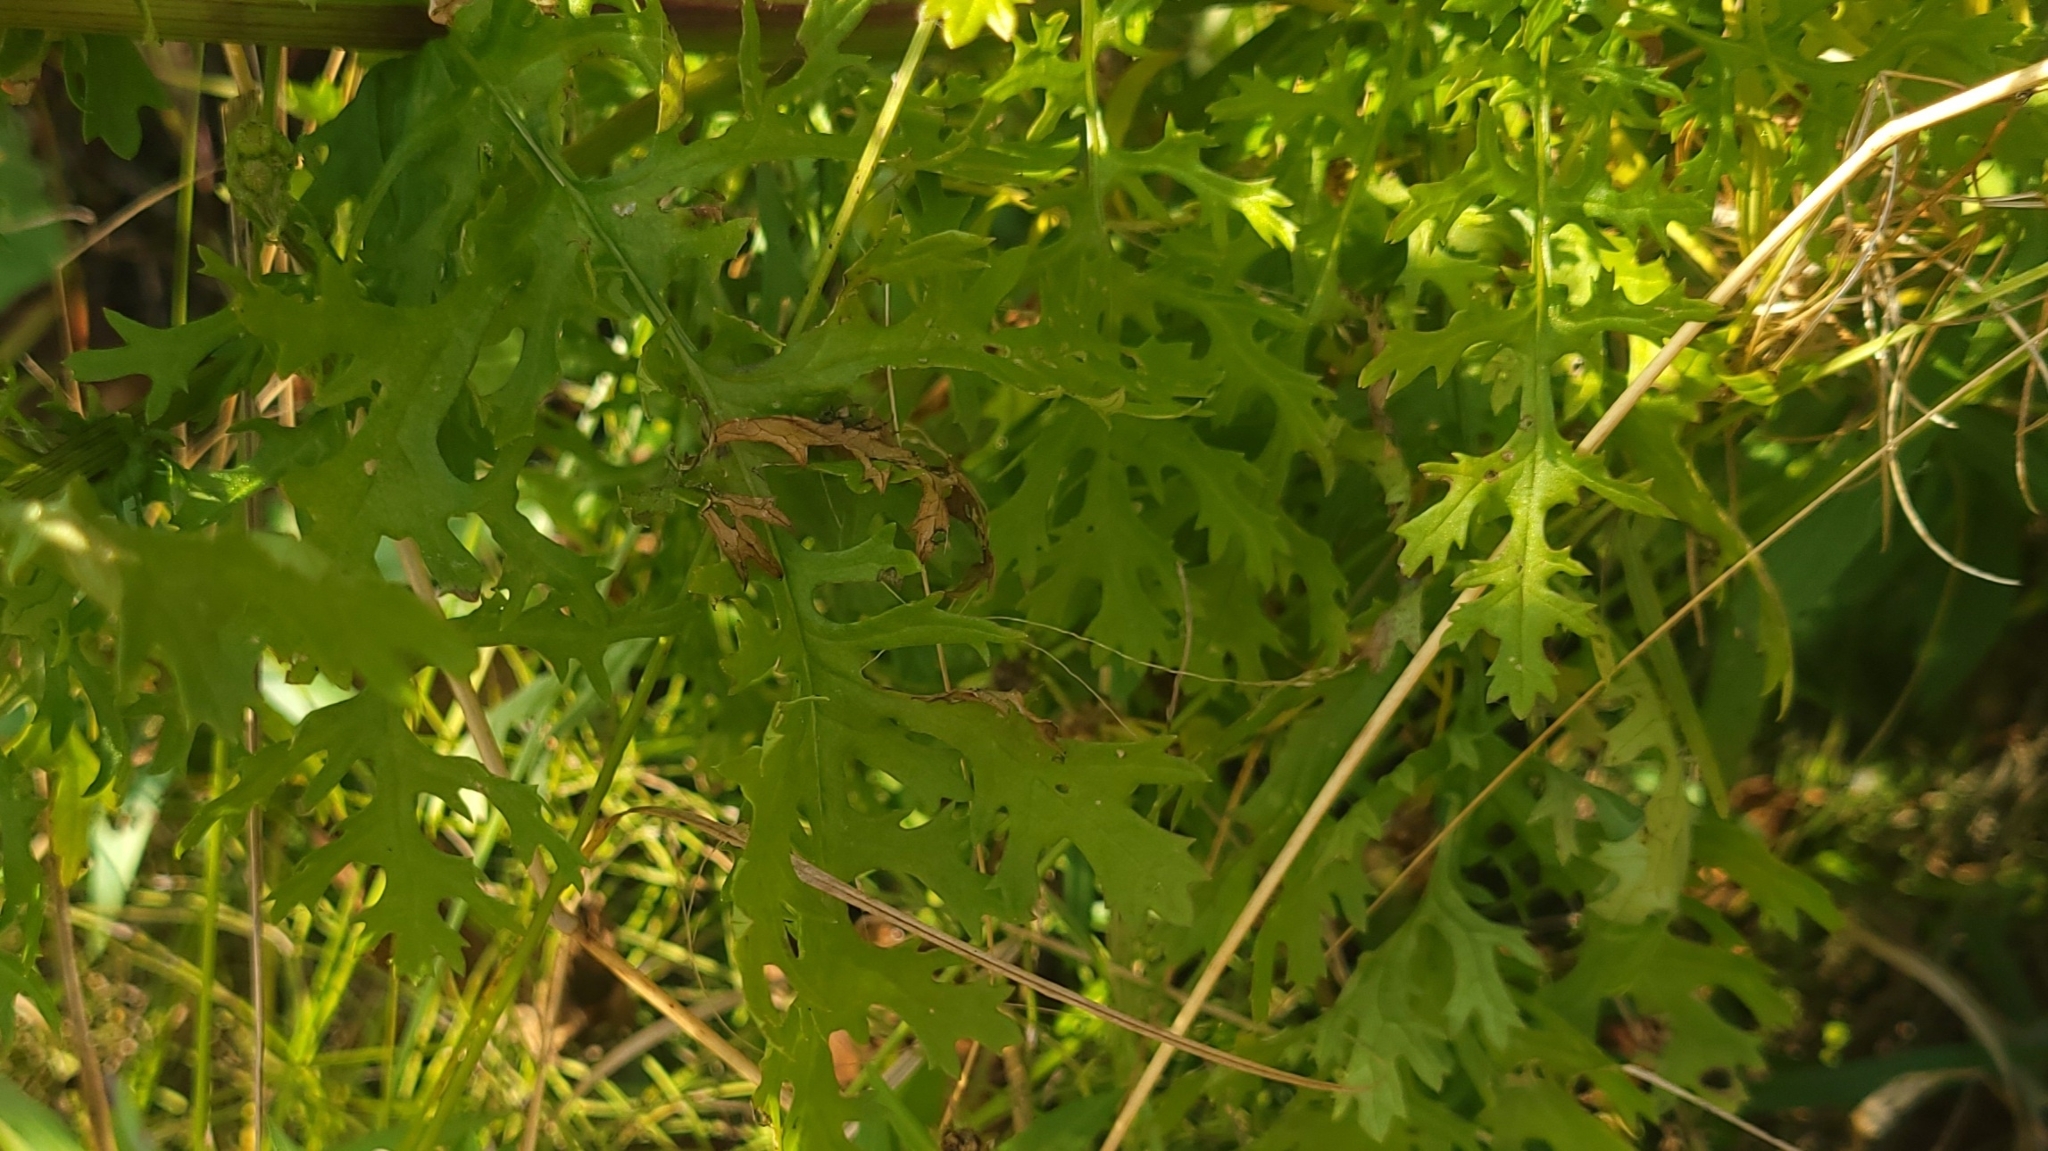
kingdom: Plantae
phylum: Tracheophyta
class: Magnoliopsida
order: Asterales
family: Asteraceae
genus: Jacobaea
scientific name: Jacobaea vulgaris
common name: Stinking willie
